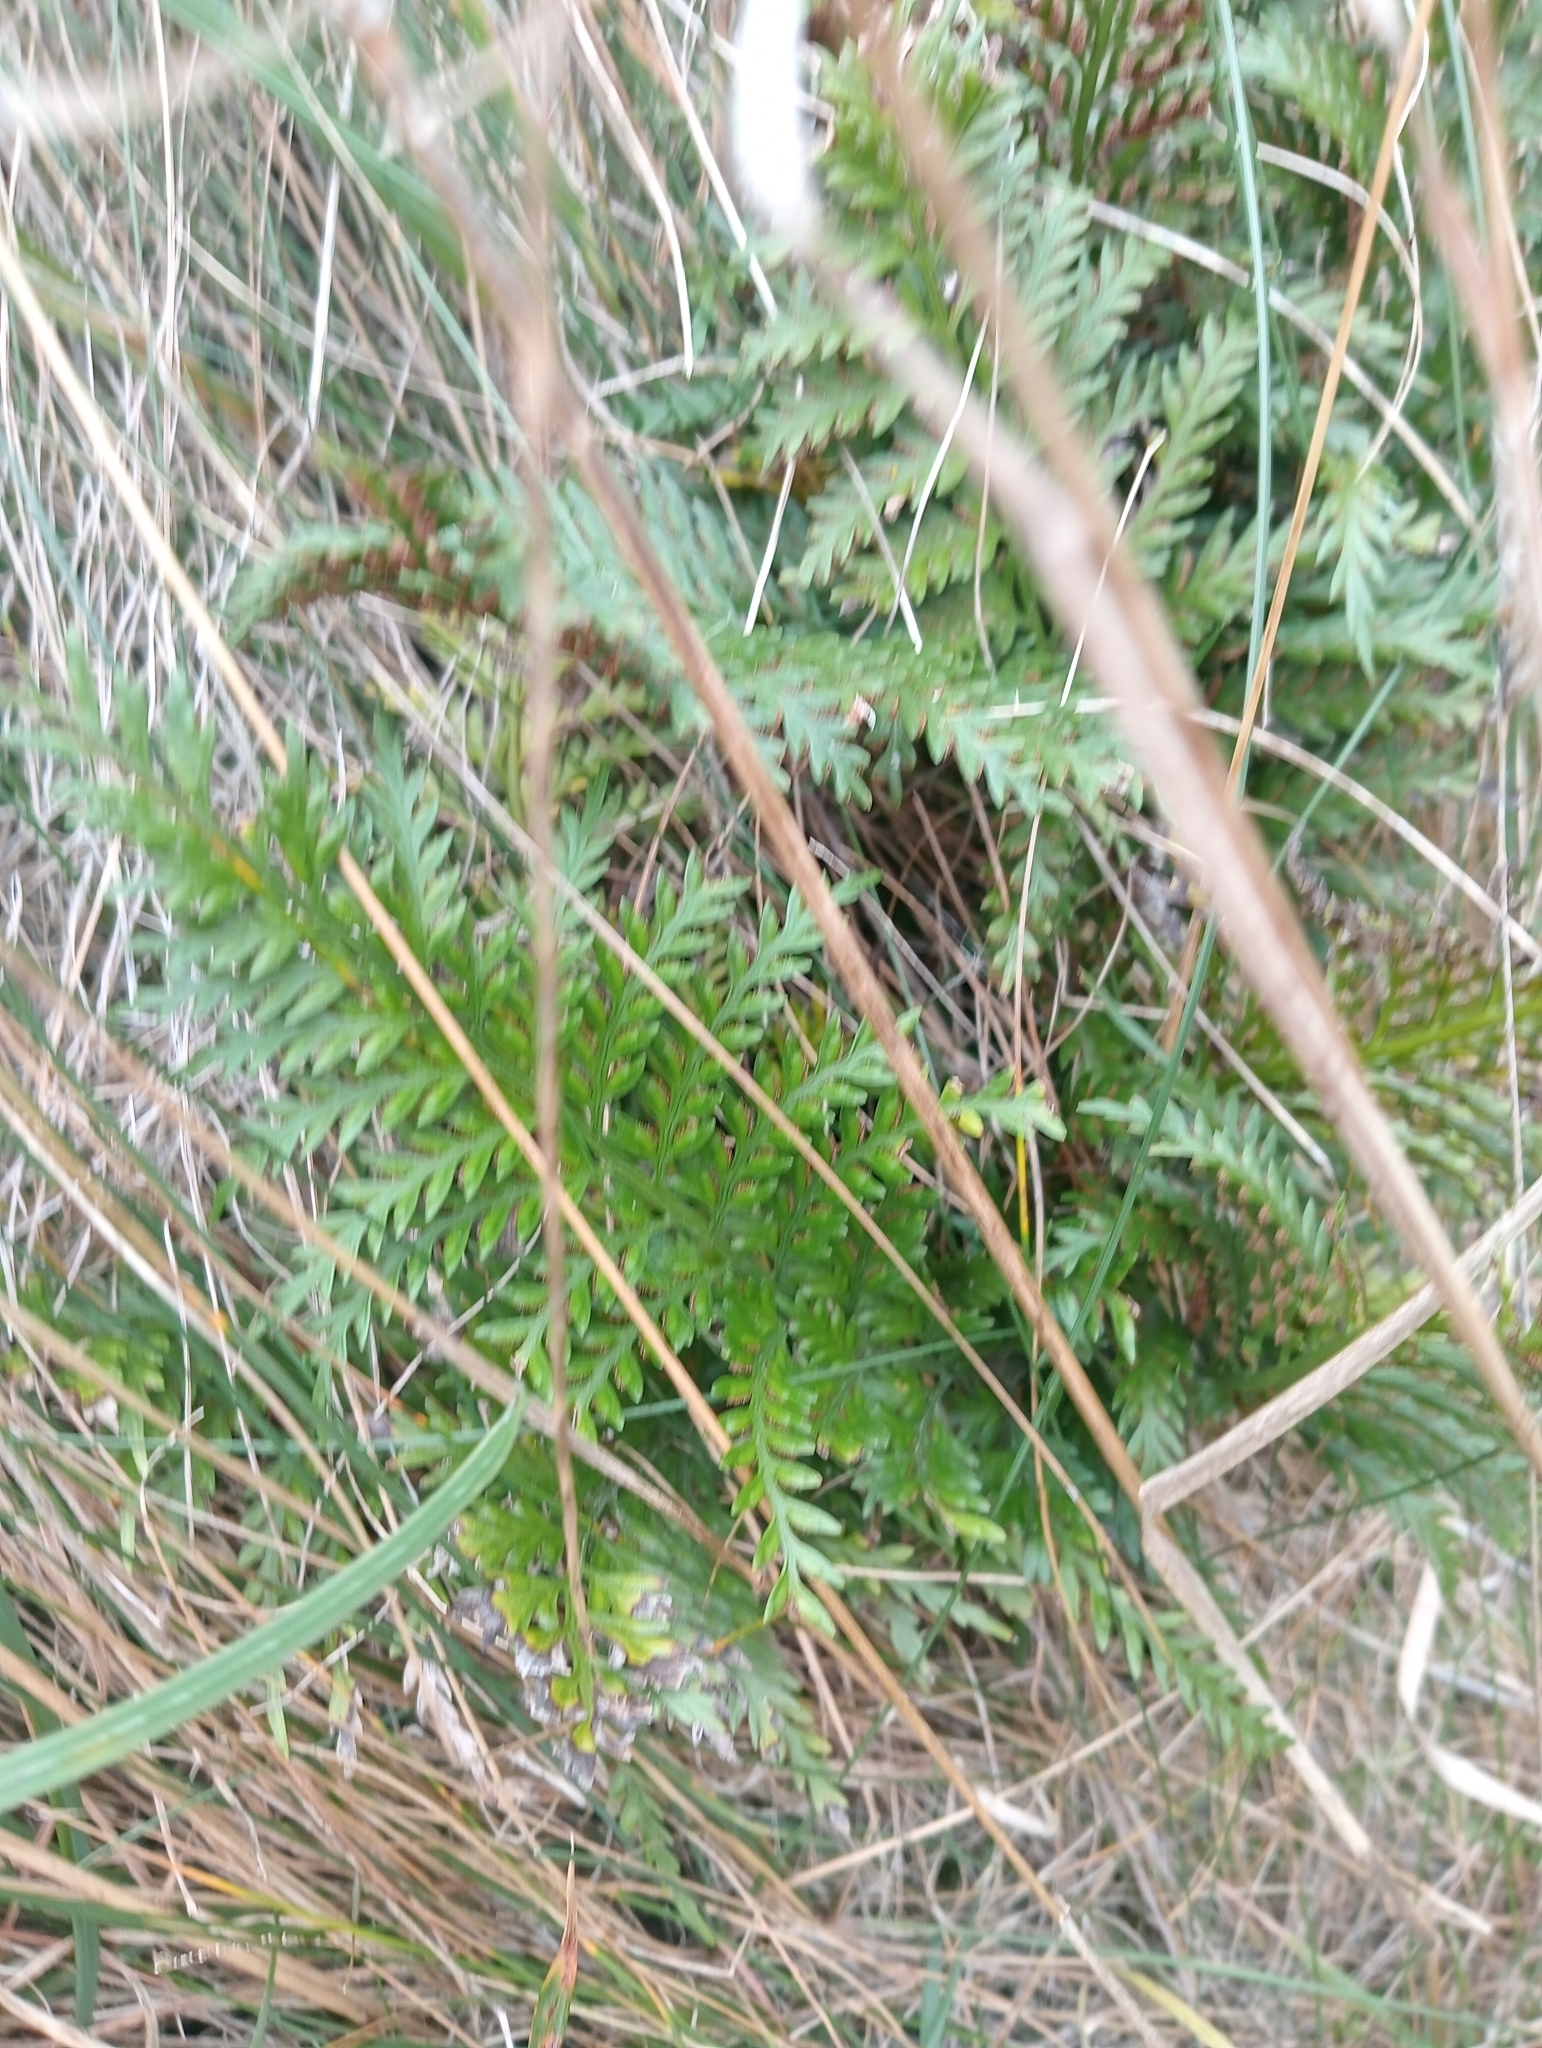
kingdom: Plantae
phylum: Tracheophyta
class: Polypodiopsida
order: Polypodiales
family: Aspleniaceae
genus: Asplenium
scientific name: Asplenium appendiculatum
